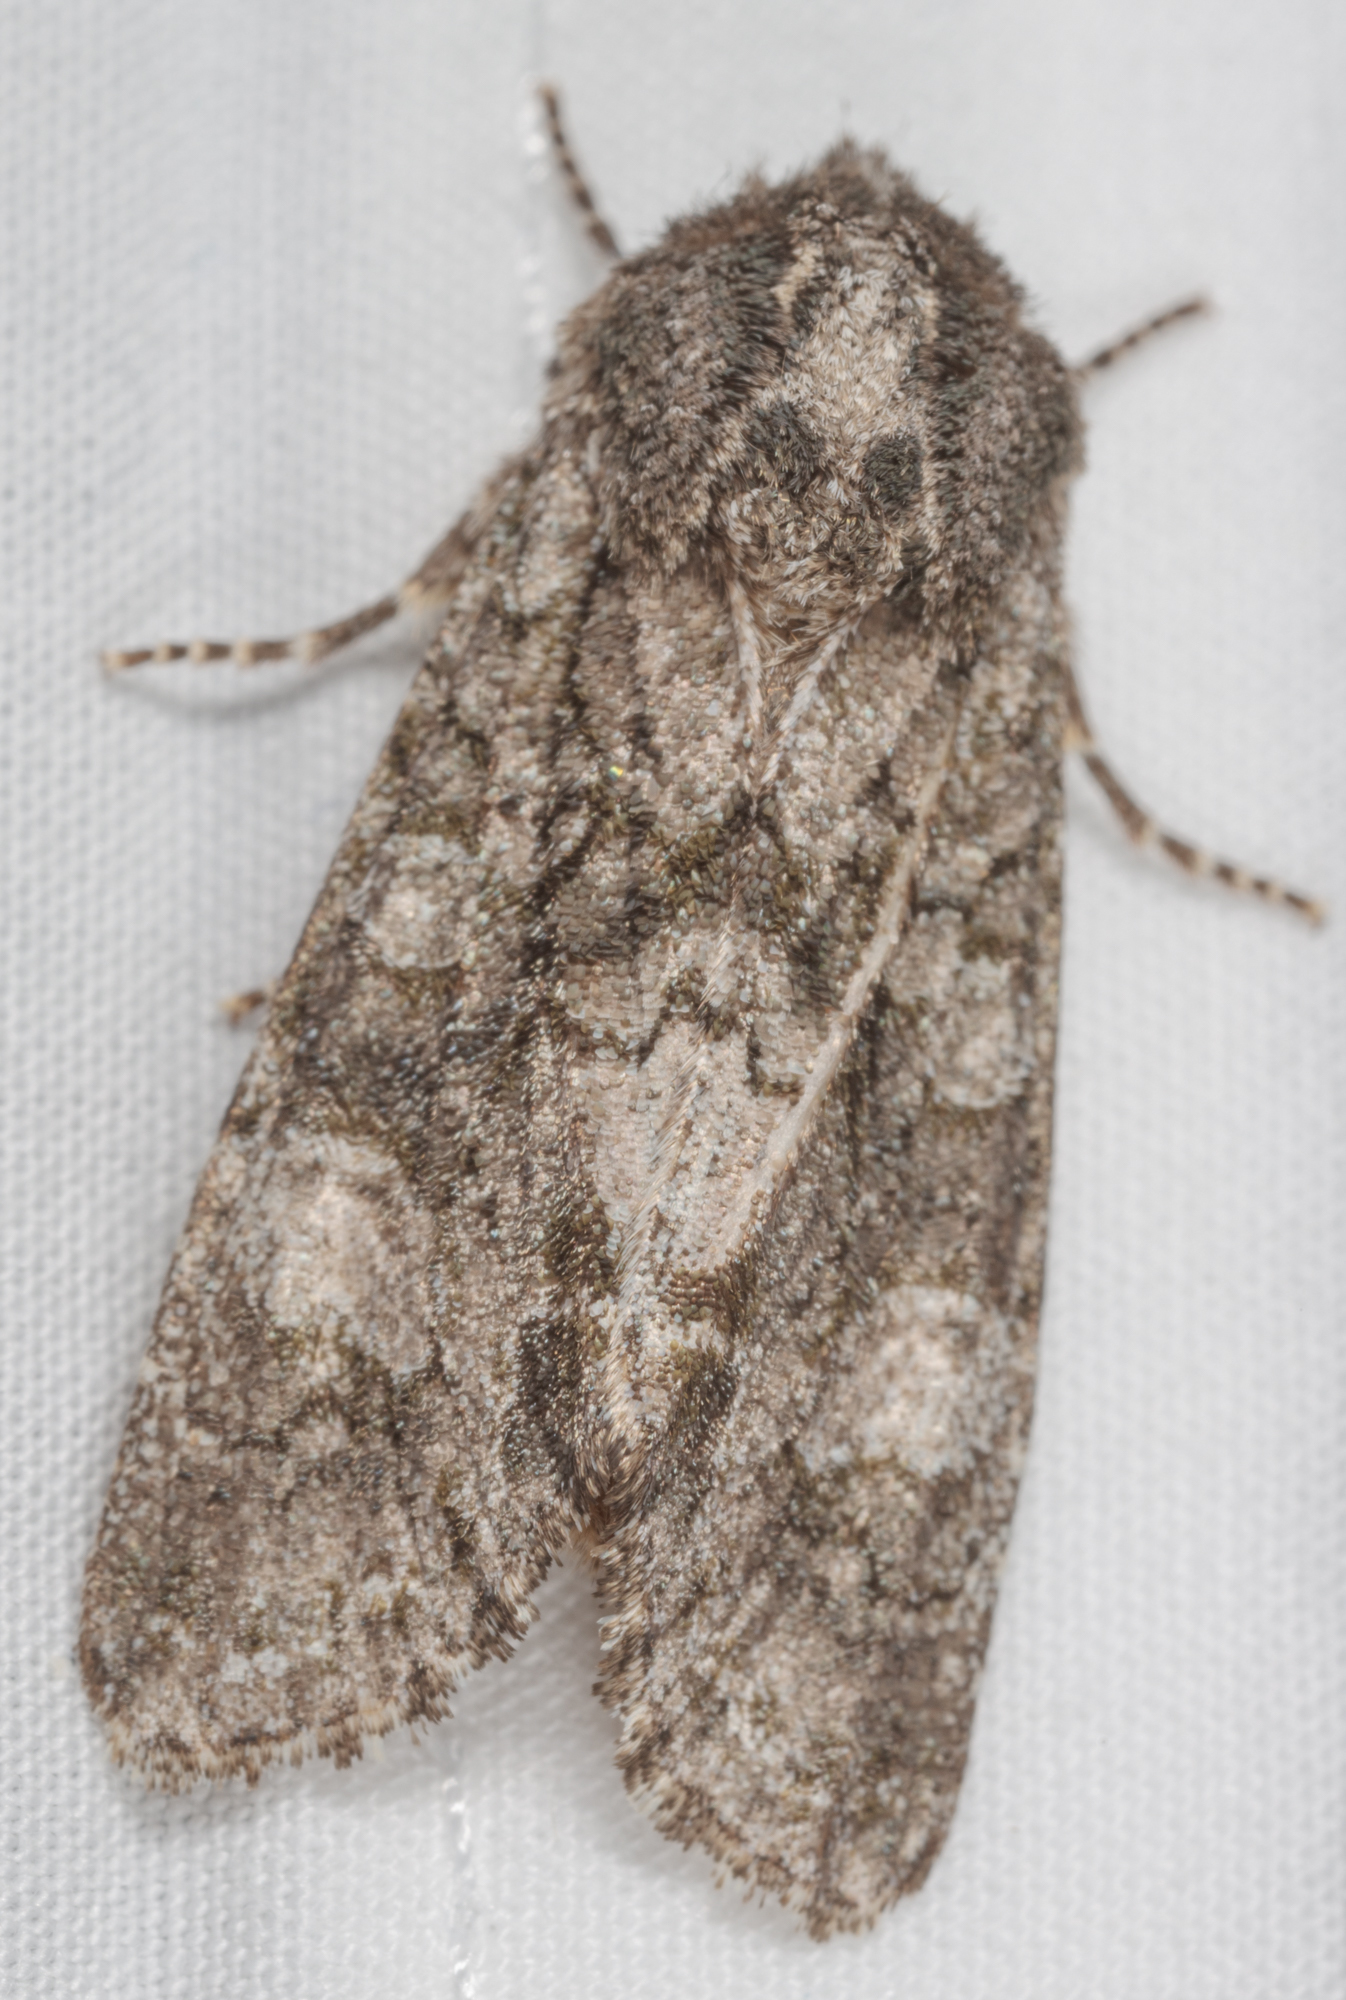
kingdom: Animalia
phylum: Arthropoda
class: Insecta
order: Lepidoptera
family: Noctuidae
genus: Psaphida
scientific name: Psaphida grotei
